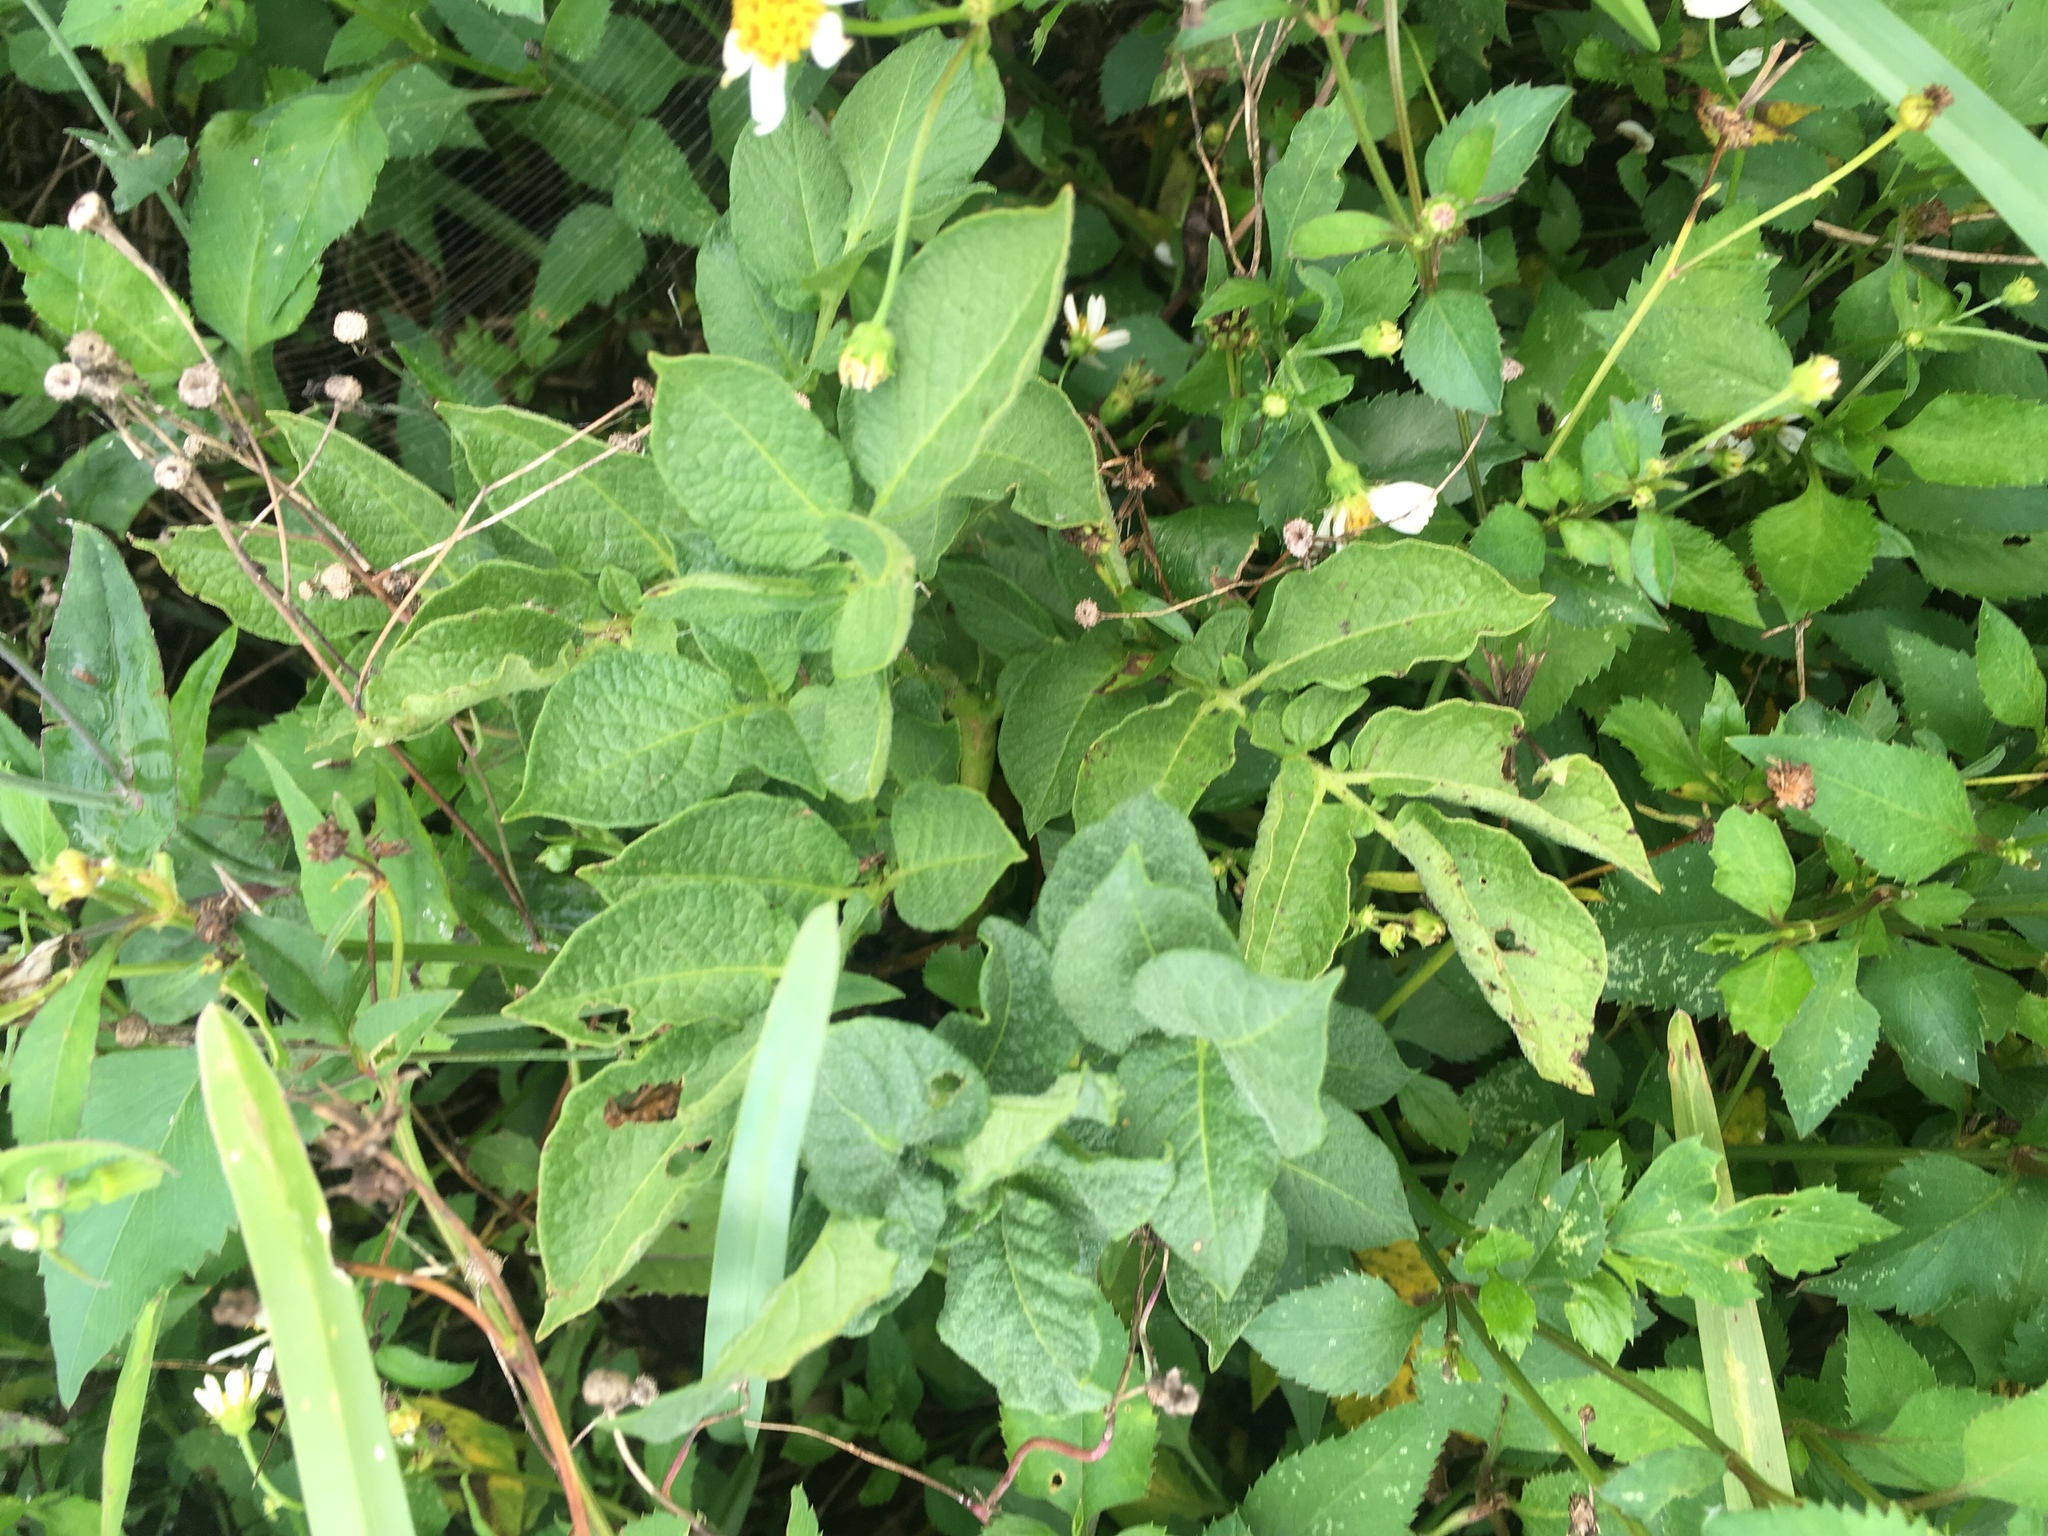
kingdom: Plantae
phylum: Tracheophyta
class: Magnoliopsida
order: Solanales
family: Solanaceae
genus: Solanum
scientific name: Solanum tuberosum
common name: Potato
